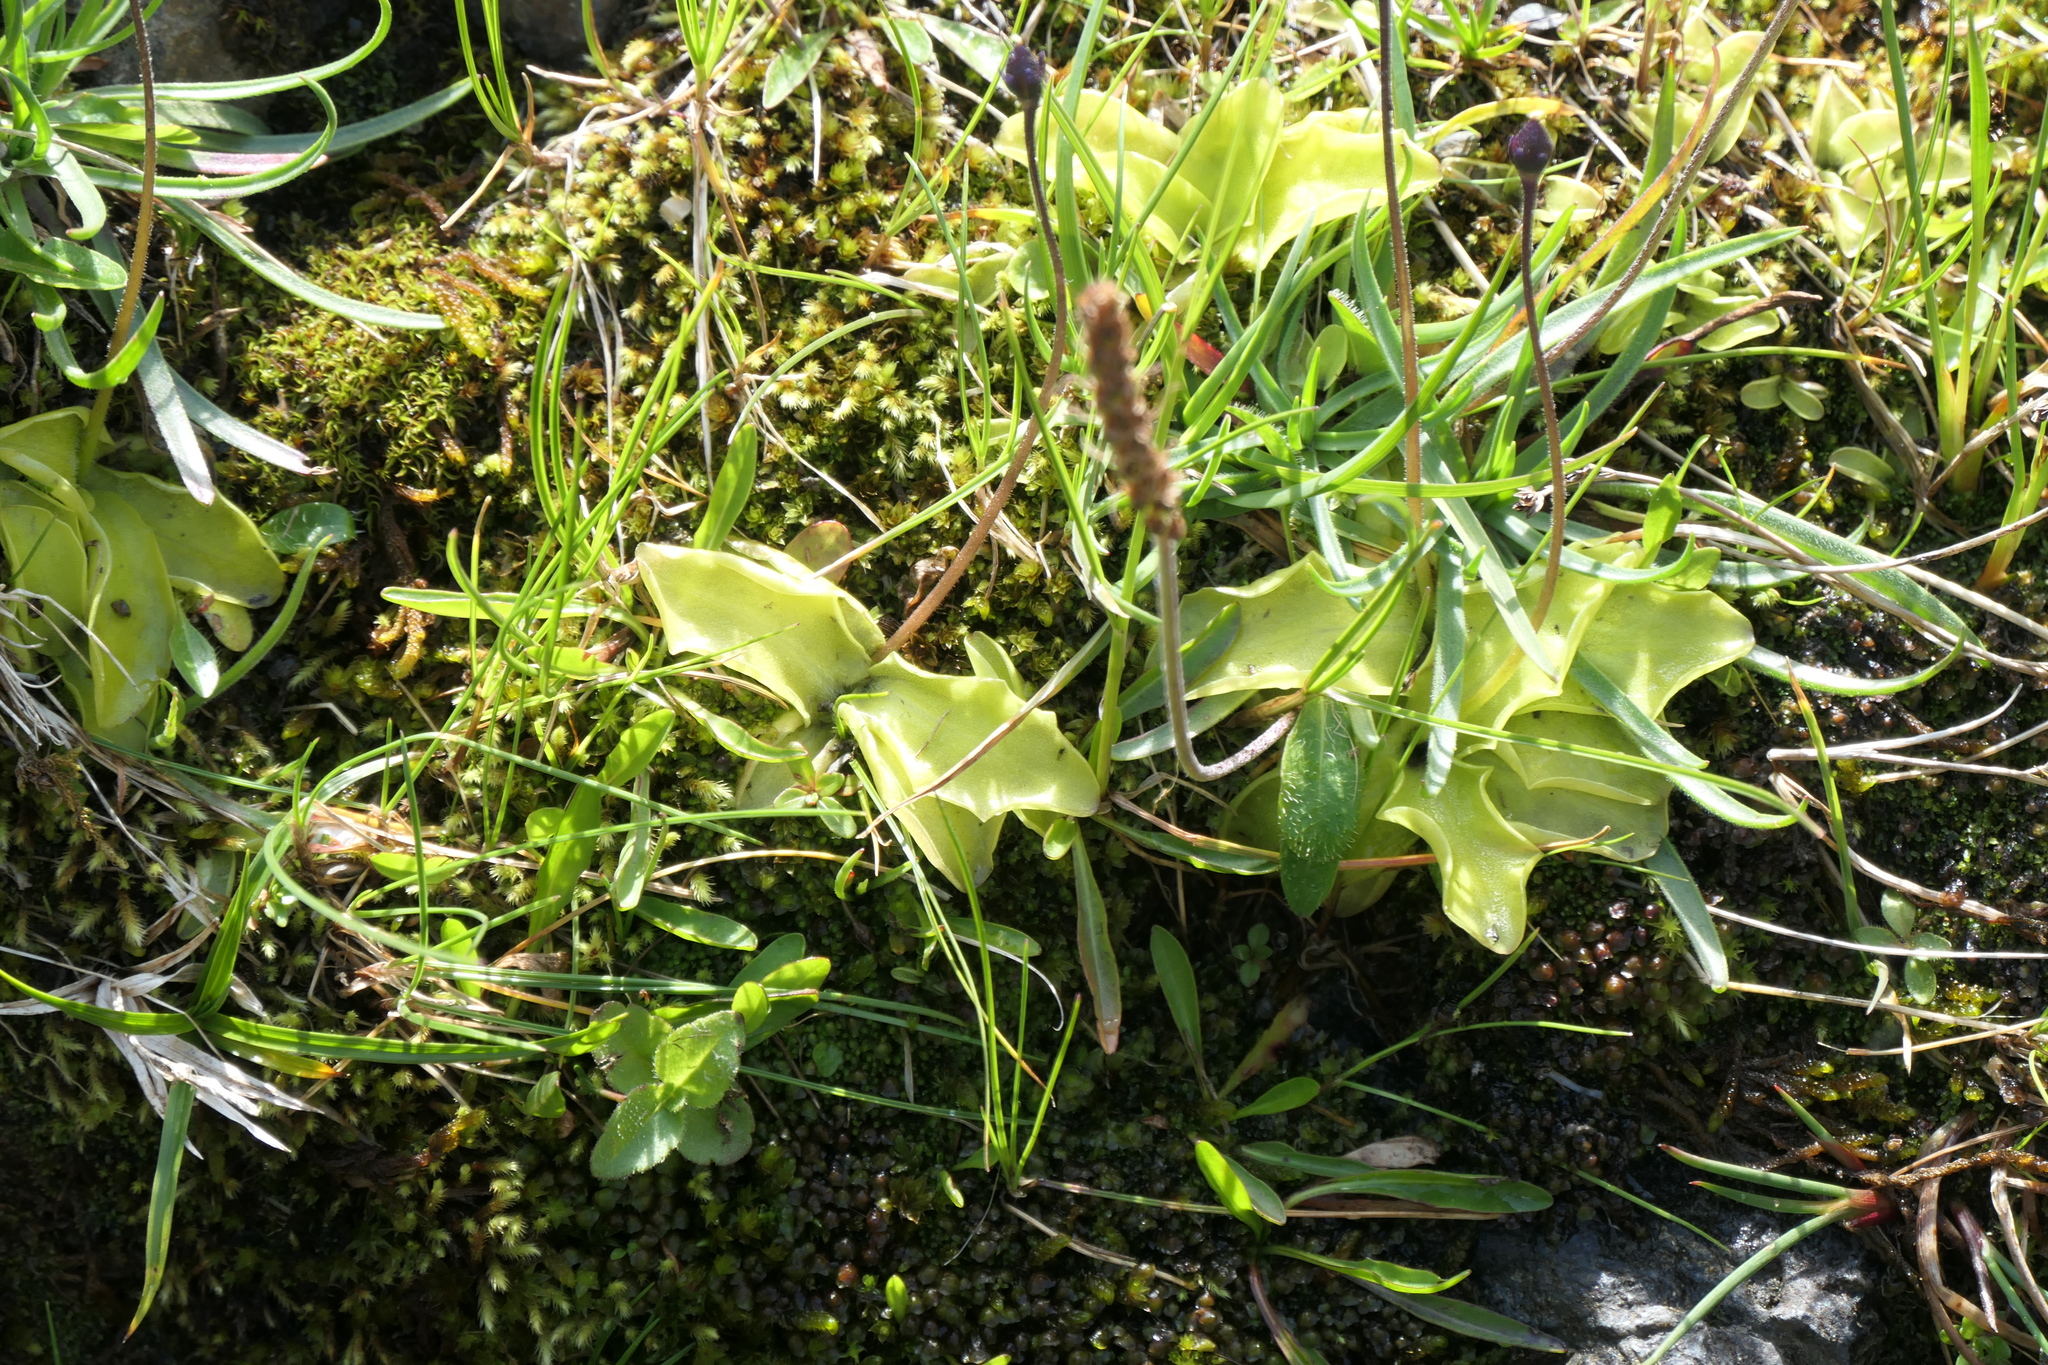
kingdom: Plantae
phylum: Tracheophyta
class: Magnoliopsida
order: Lamiales
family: Lentibulariaceae
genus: Pinguicula
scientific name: Pinguicula grandiflora
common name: Large-flowered butterwort
